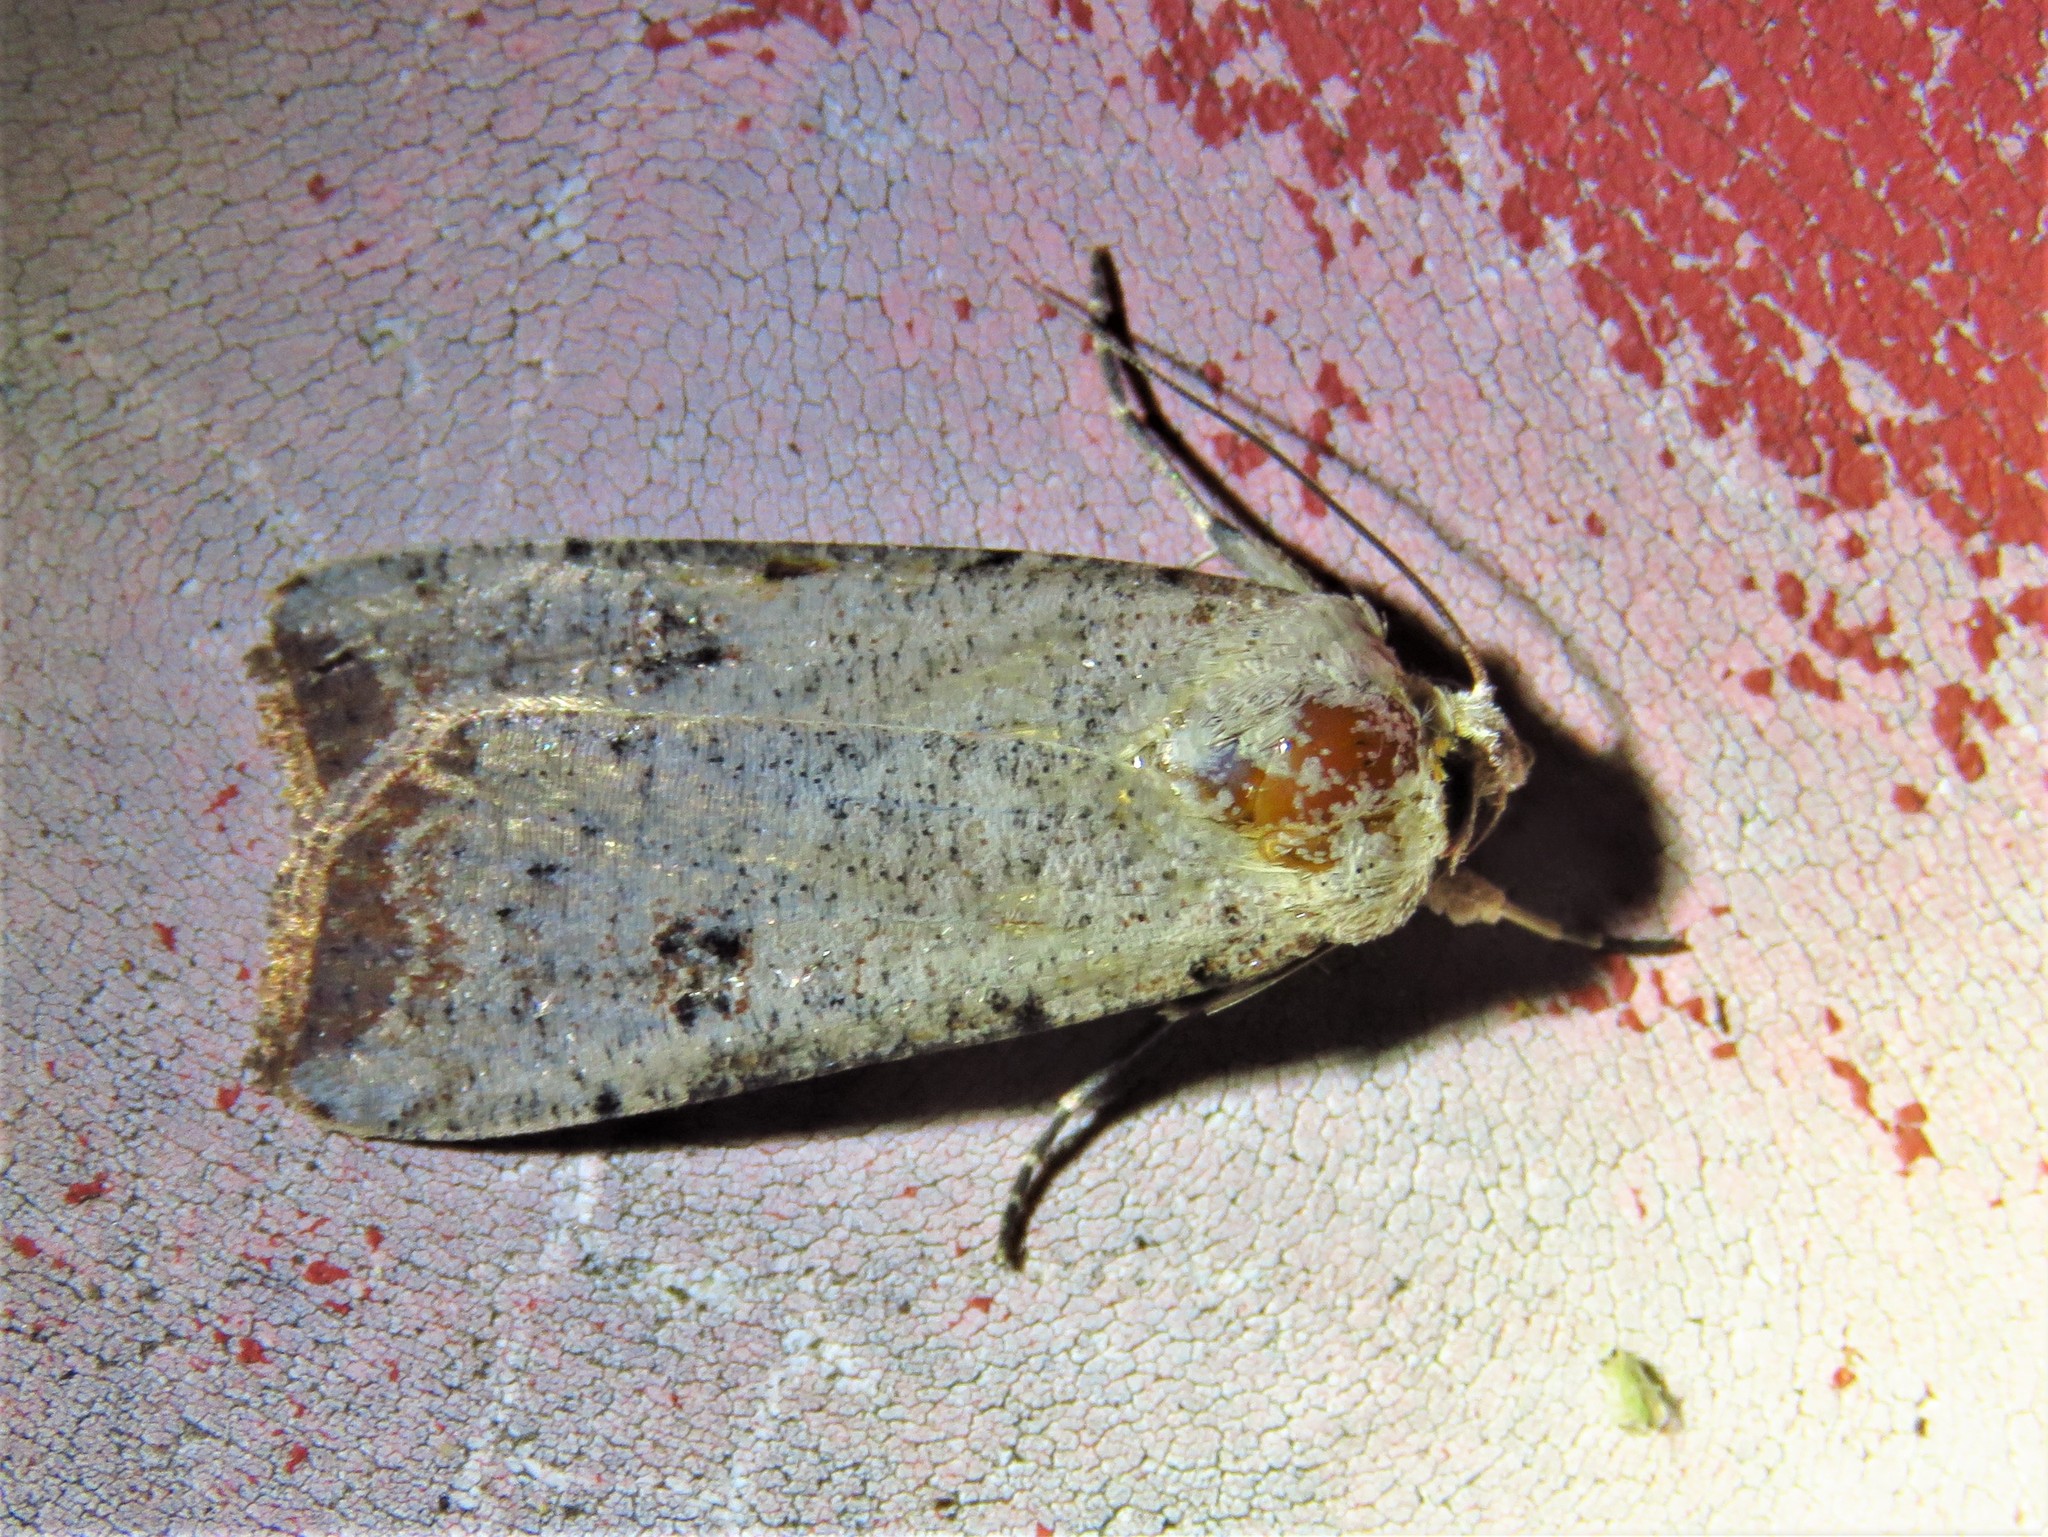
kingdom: Animalia
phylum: Arthropoda
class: Insecta
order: Lepidoptera
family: Noctuidae
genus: Anicla
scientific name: Anicla infecta
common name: Green cutworm
